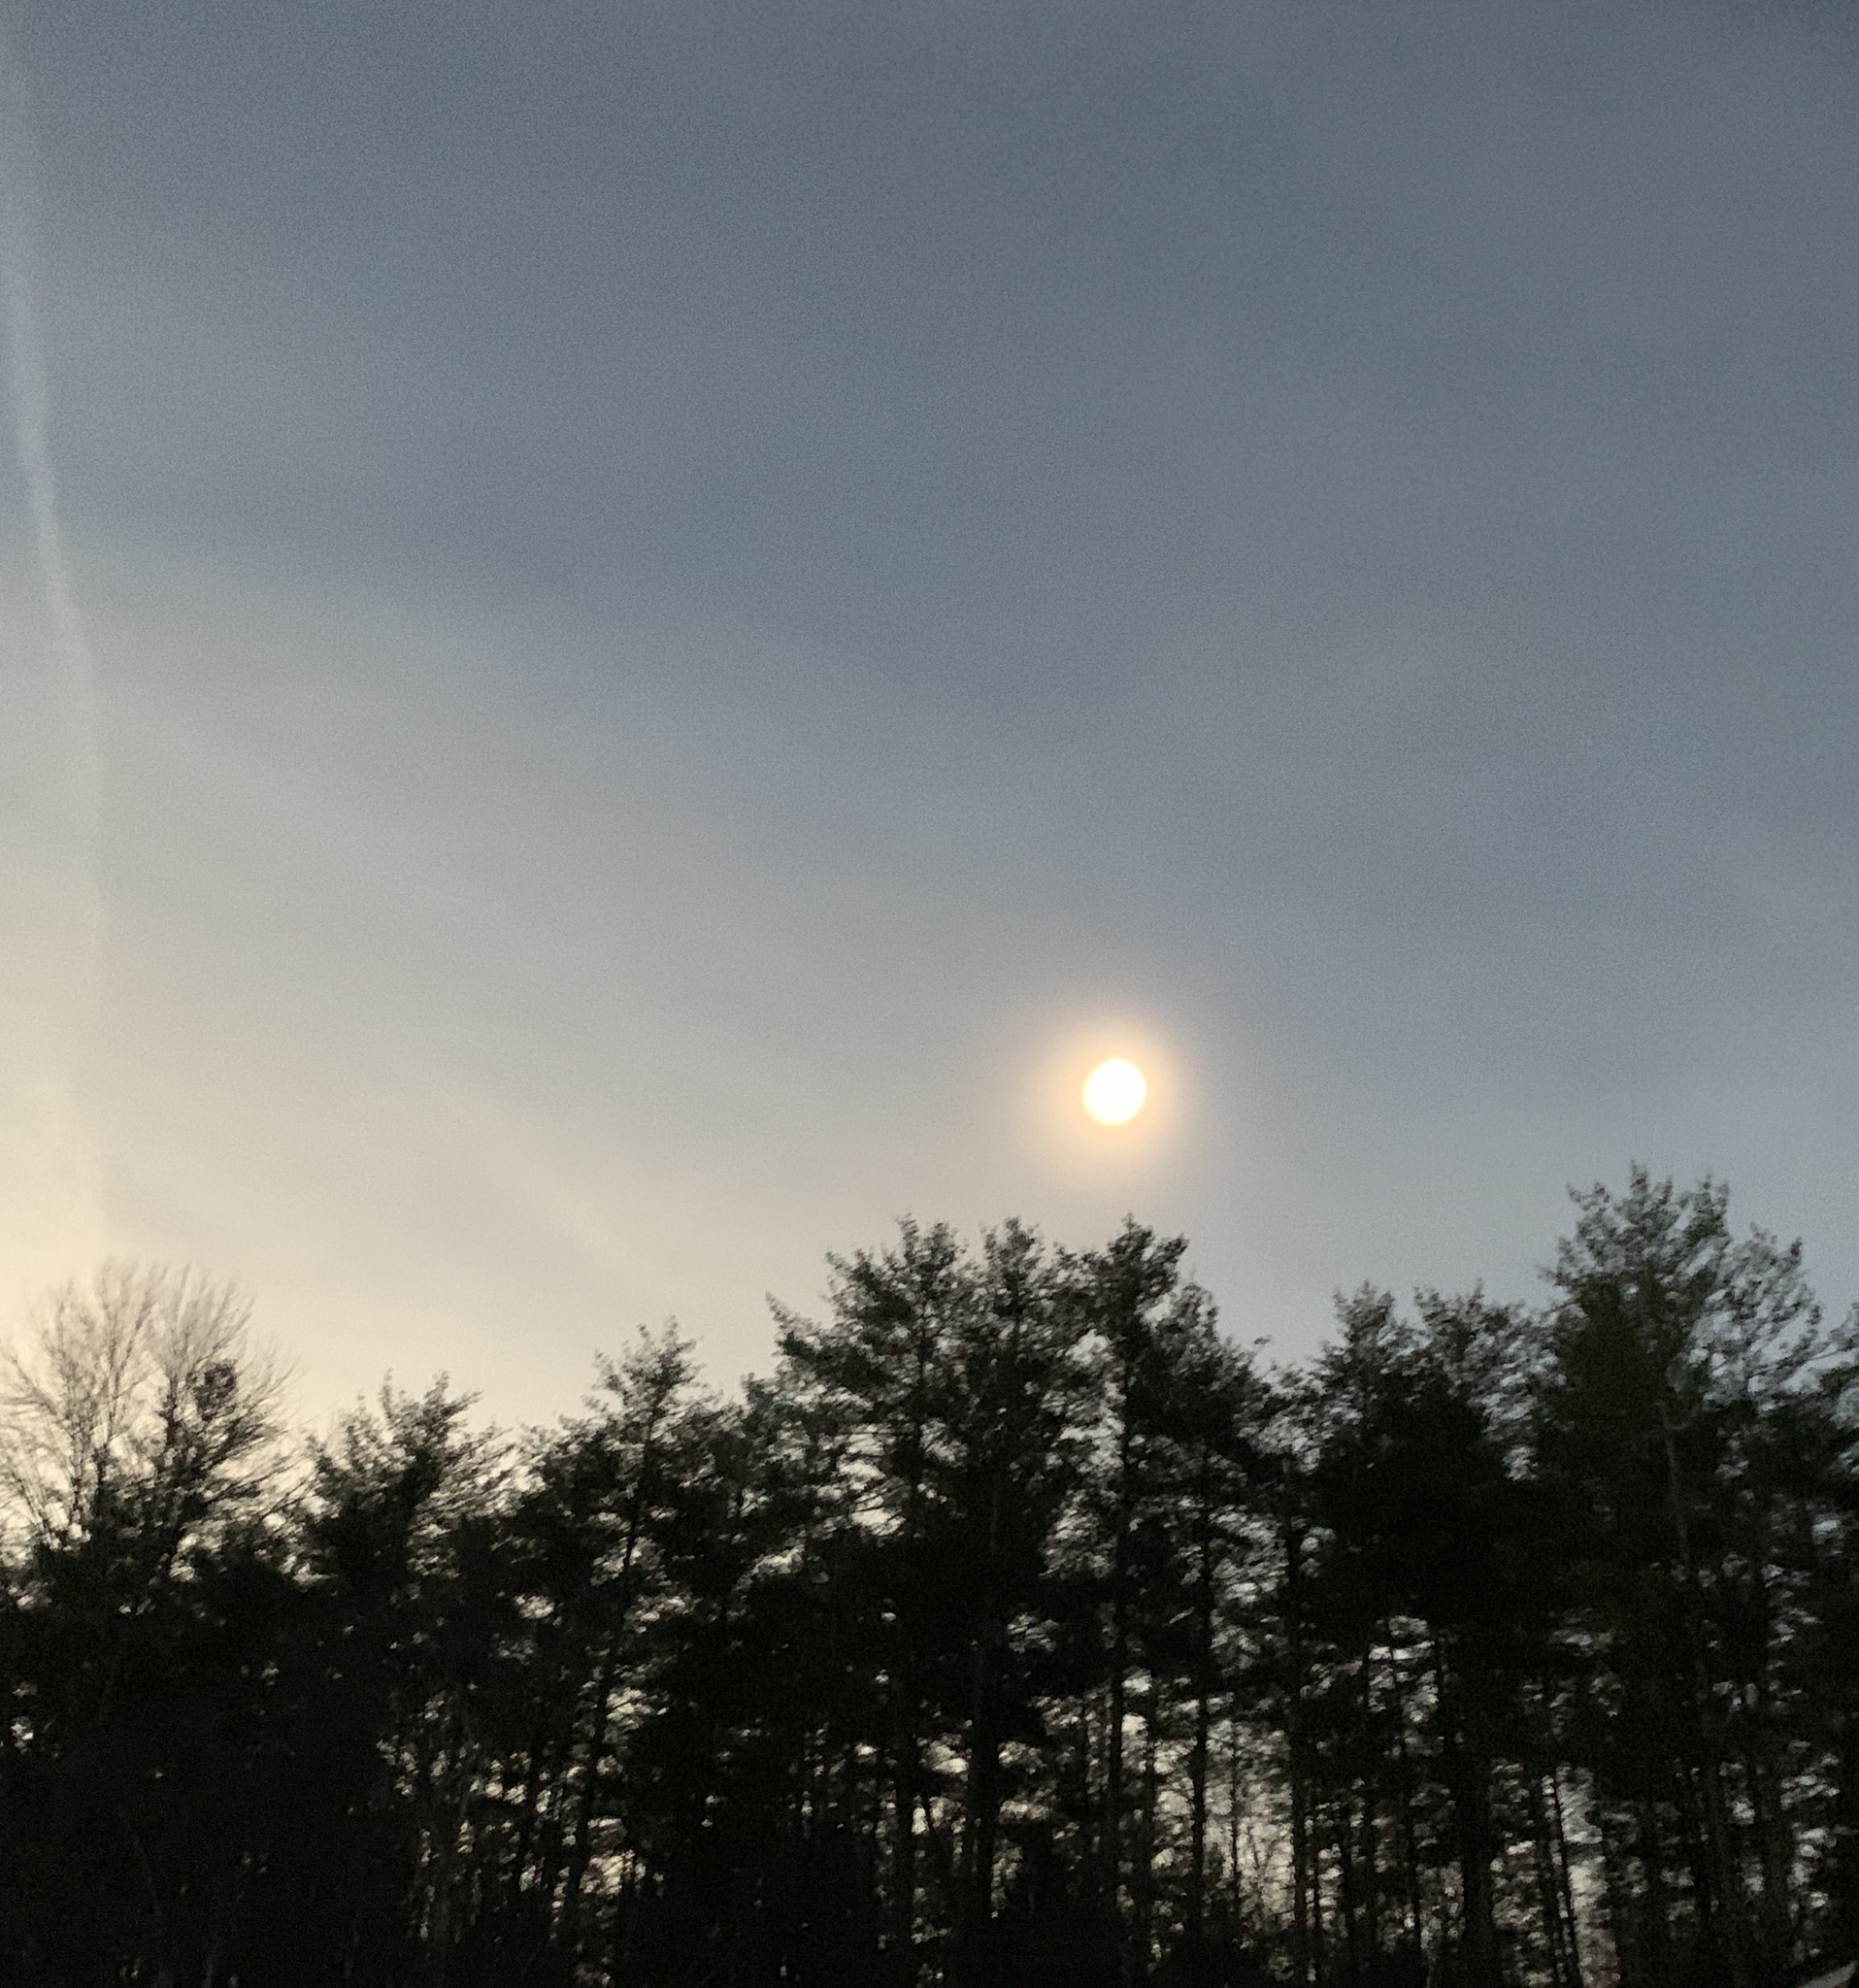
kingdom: Plantae
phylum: Tracheophyta
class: Pinopsida
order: Pinales
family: Pinaceae
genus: Pinus
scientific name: Pinus strobus
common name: Weymouth pine
